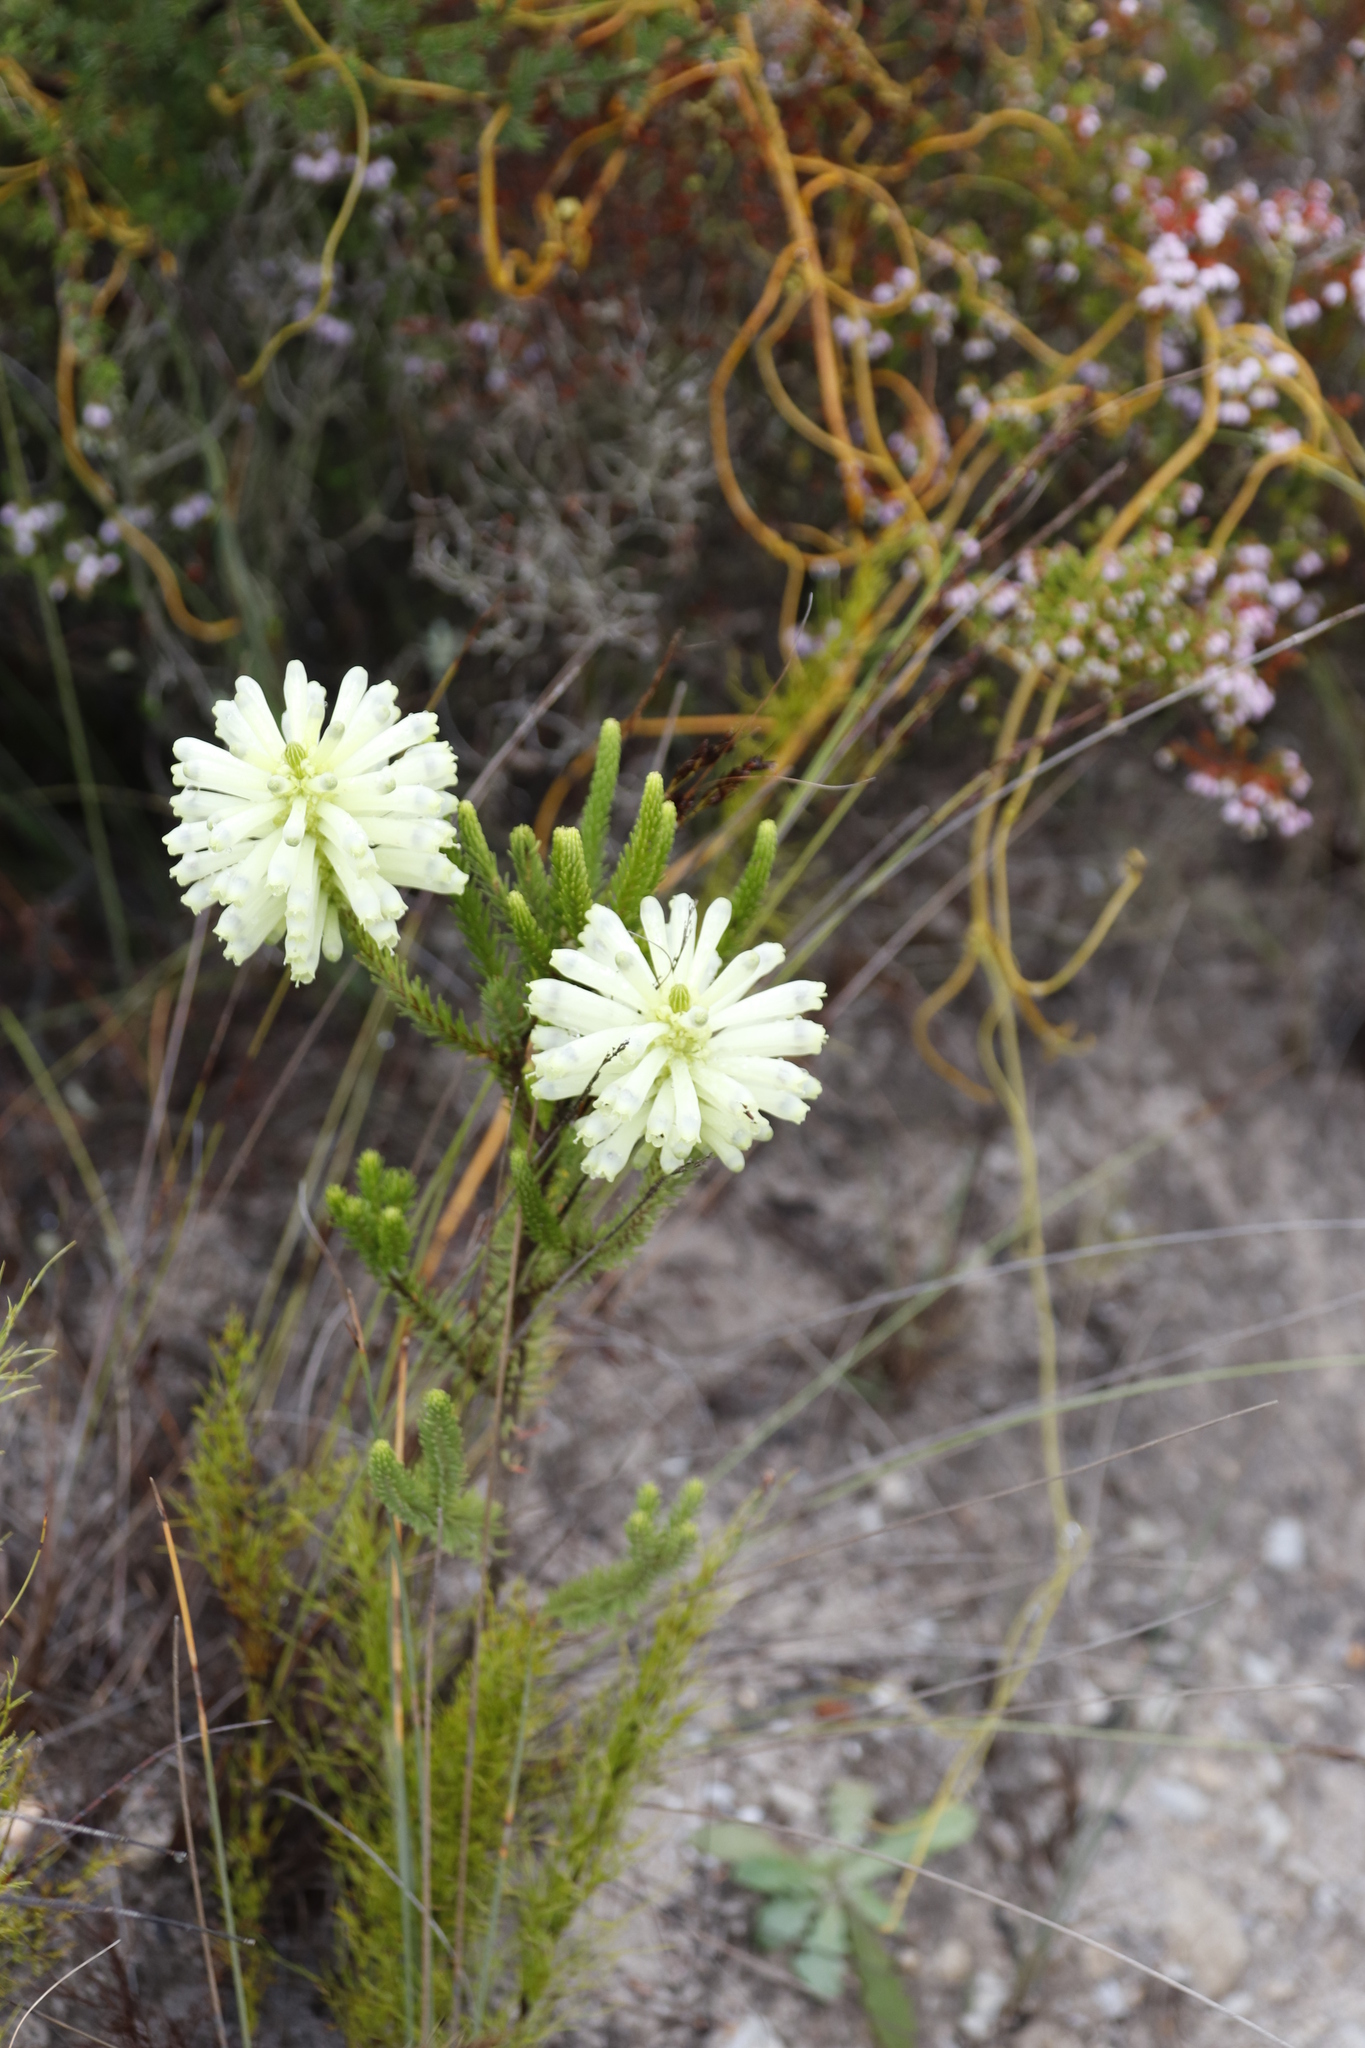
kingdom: Plantae
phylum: Tracheophyta
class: Magnoliopsida
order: Ericales
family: Ericaceae
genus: Erica
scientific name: Erica sessiliflora
